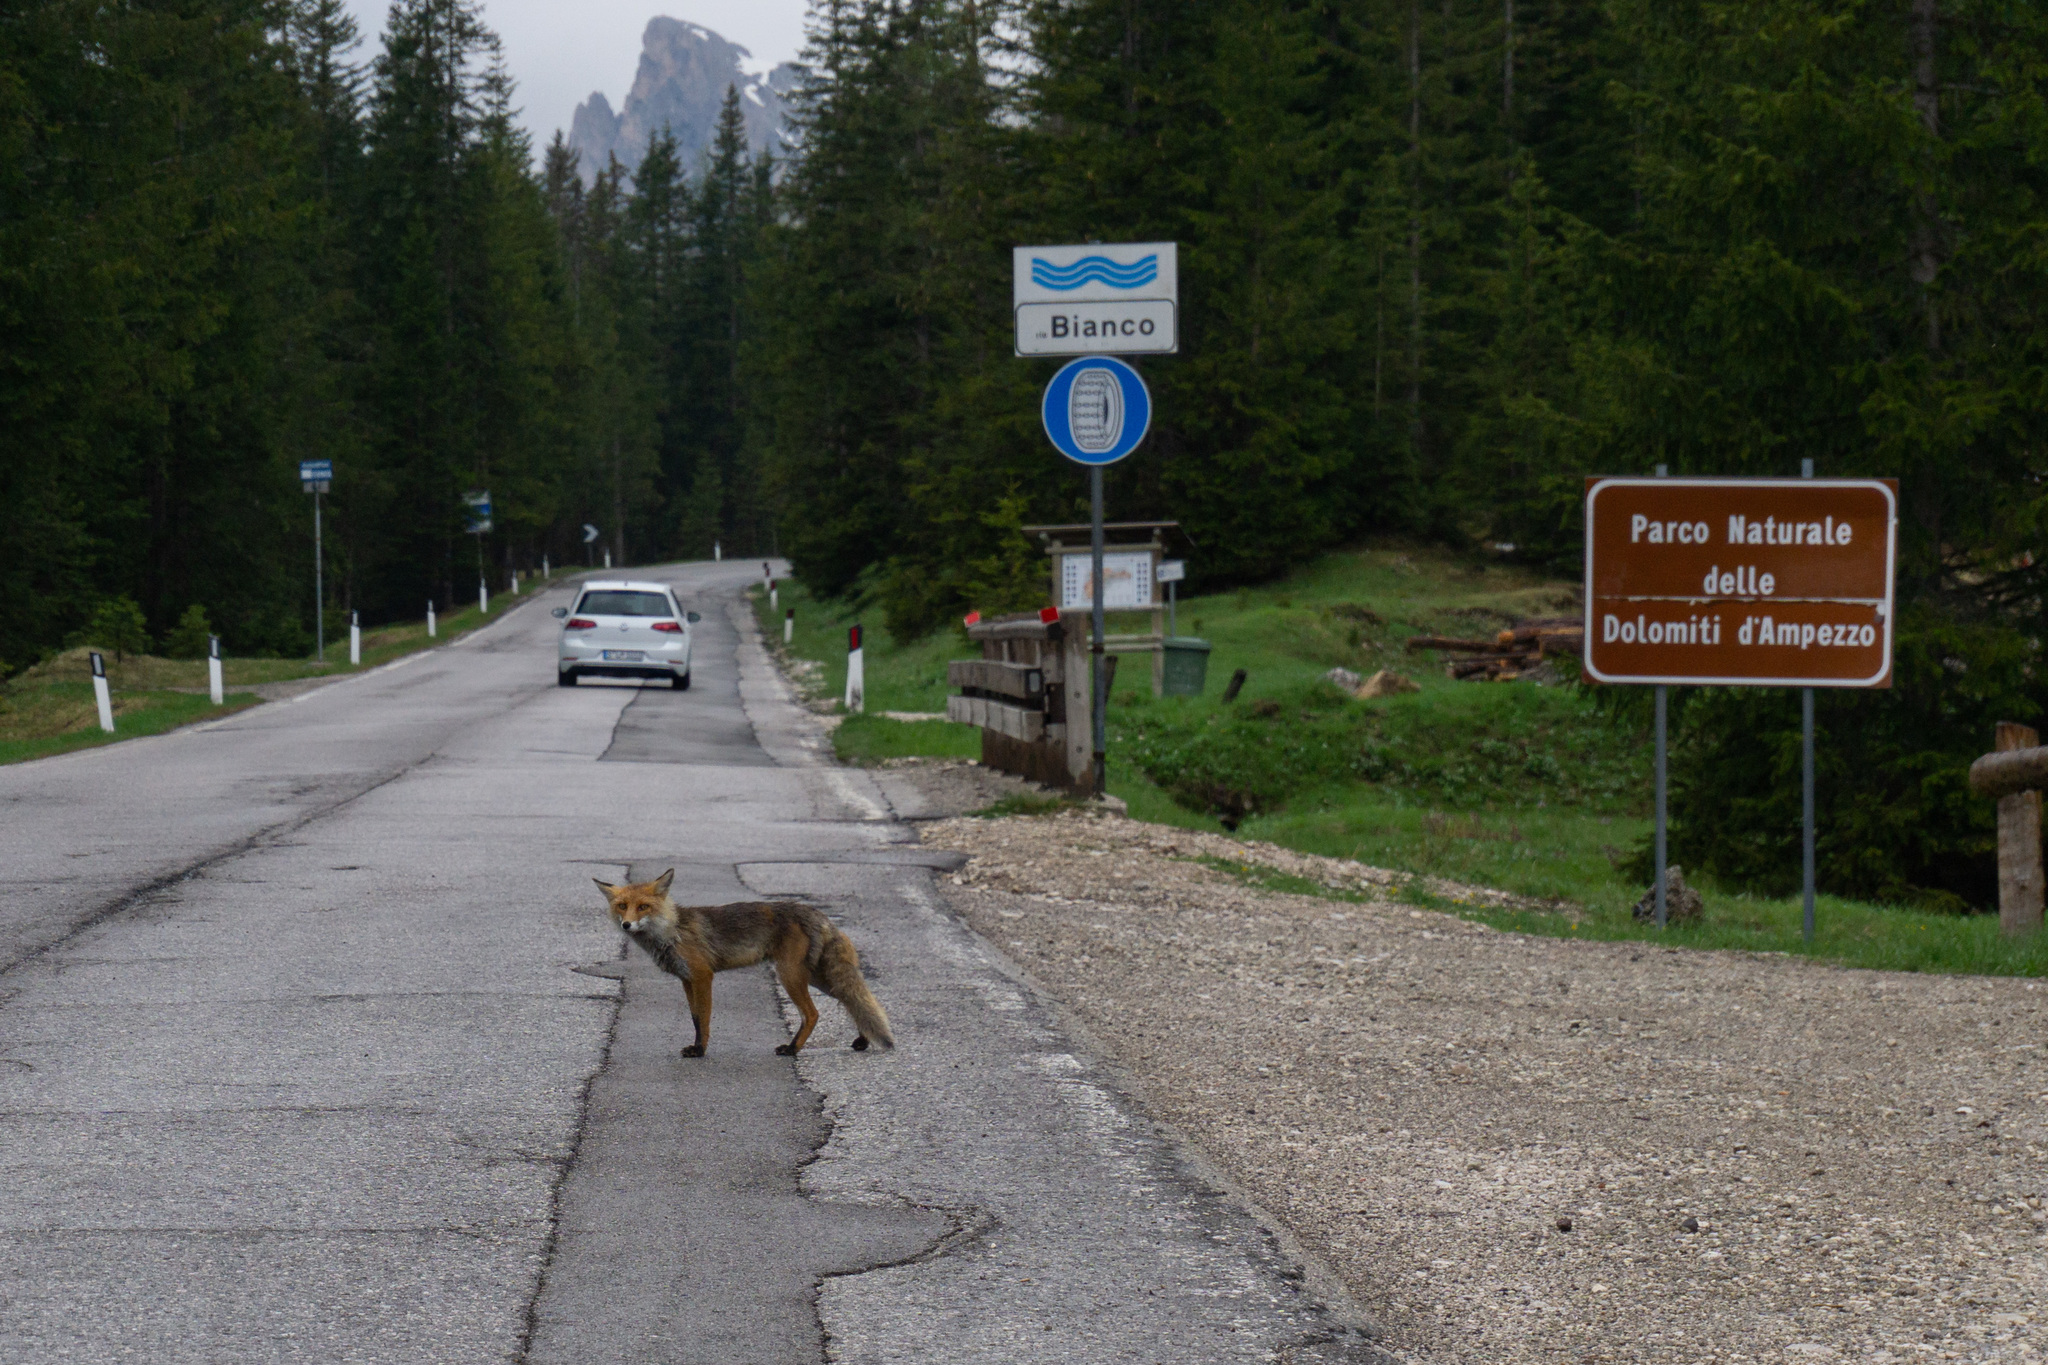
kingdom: Animalia
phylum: Chordata
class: Mammalia
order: Carnivora
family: Canidae
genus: Vulpes
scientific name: Vulpes vulpes
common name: Red fox
